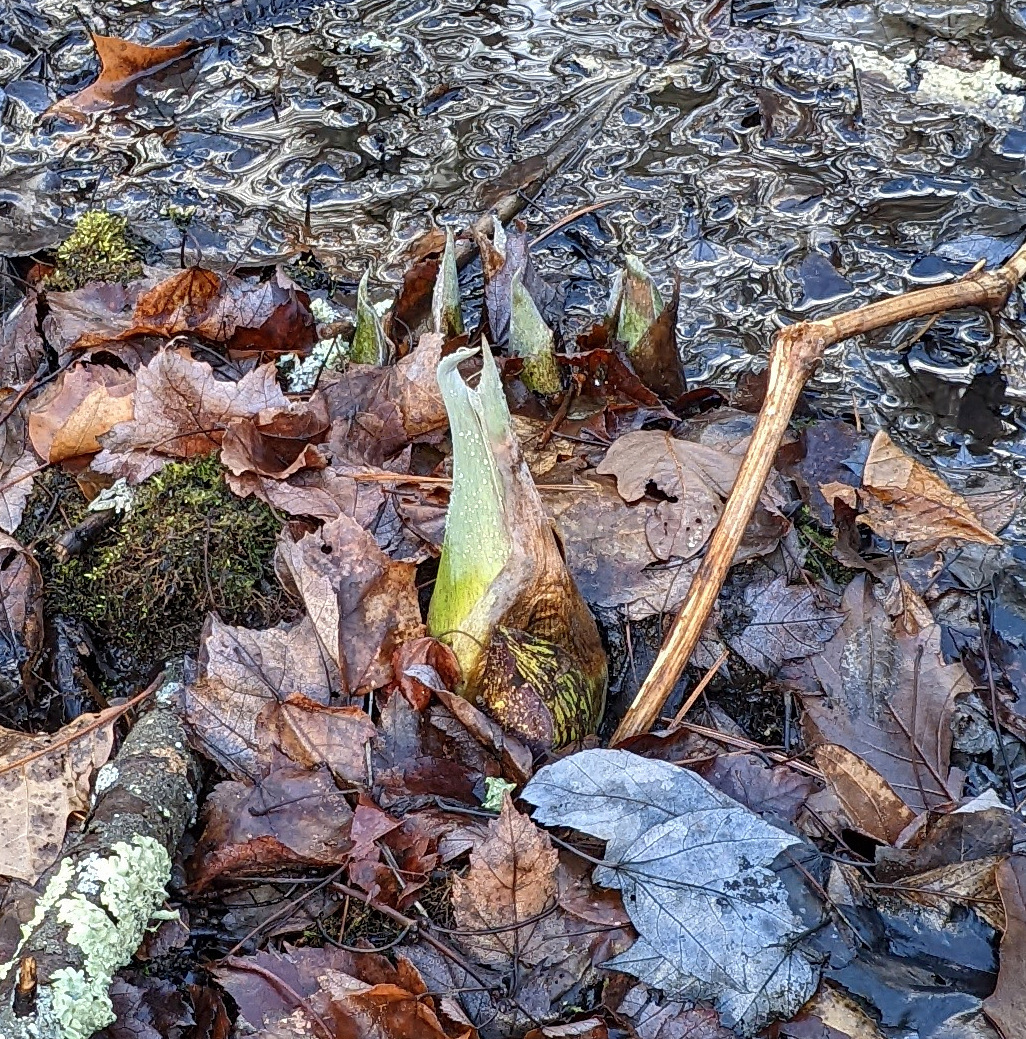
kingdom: Plantae
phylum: Tracheophyta
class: Liliopsida
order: Alismatales
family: Araceae
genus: Symplocarpus
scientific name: Symplocarpus foetidus
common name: Eastern skunk cabbage
